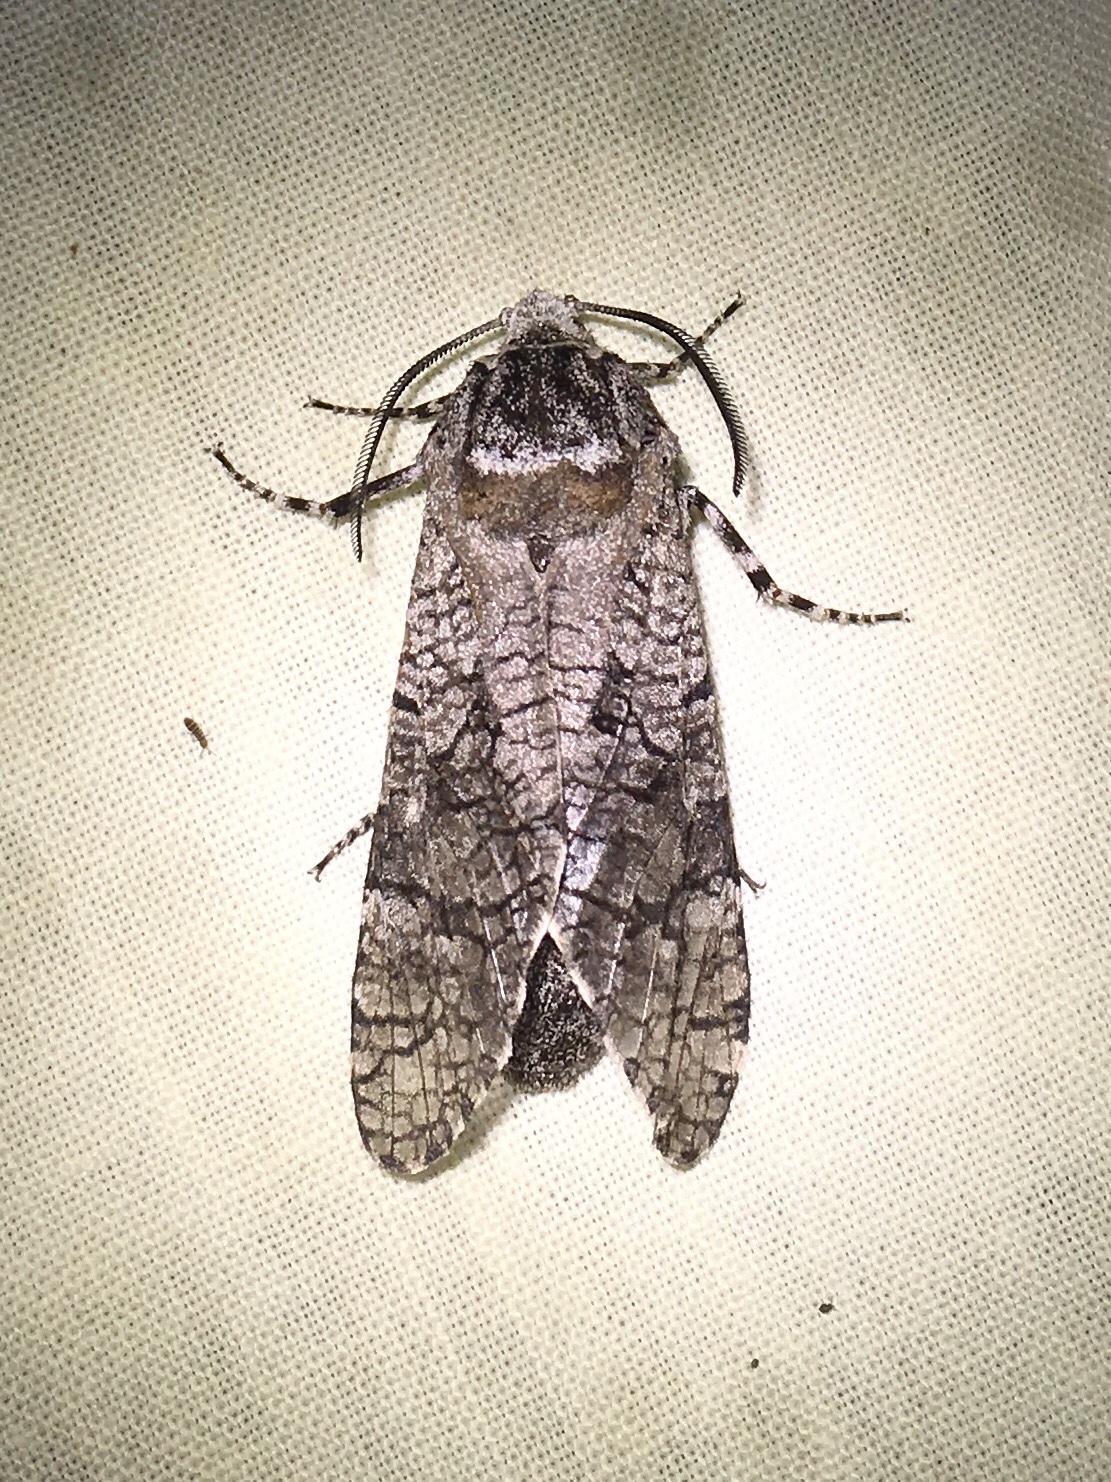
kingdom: Animalia
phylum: Arthropoda
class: Insecta
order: Lepidoptera
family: Cossidae
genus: Prionoxystus
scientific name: Prionoxystus macmurtrei
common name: Little carpenterworm
